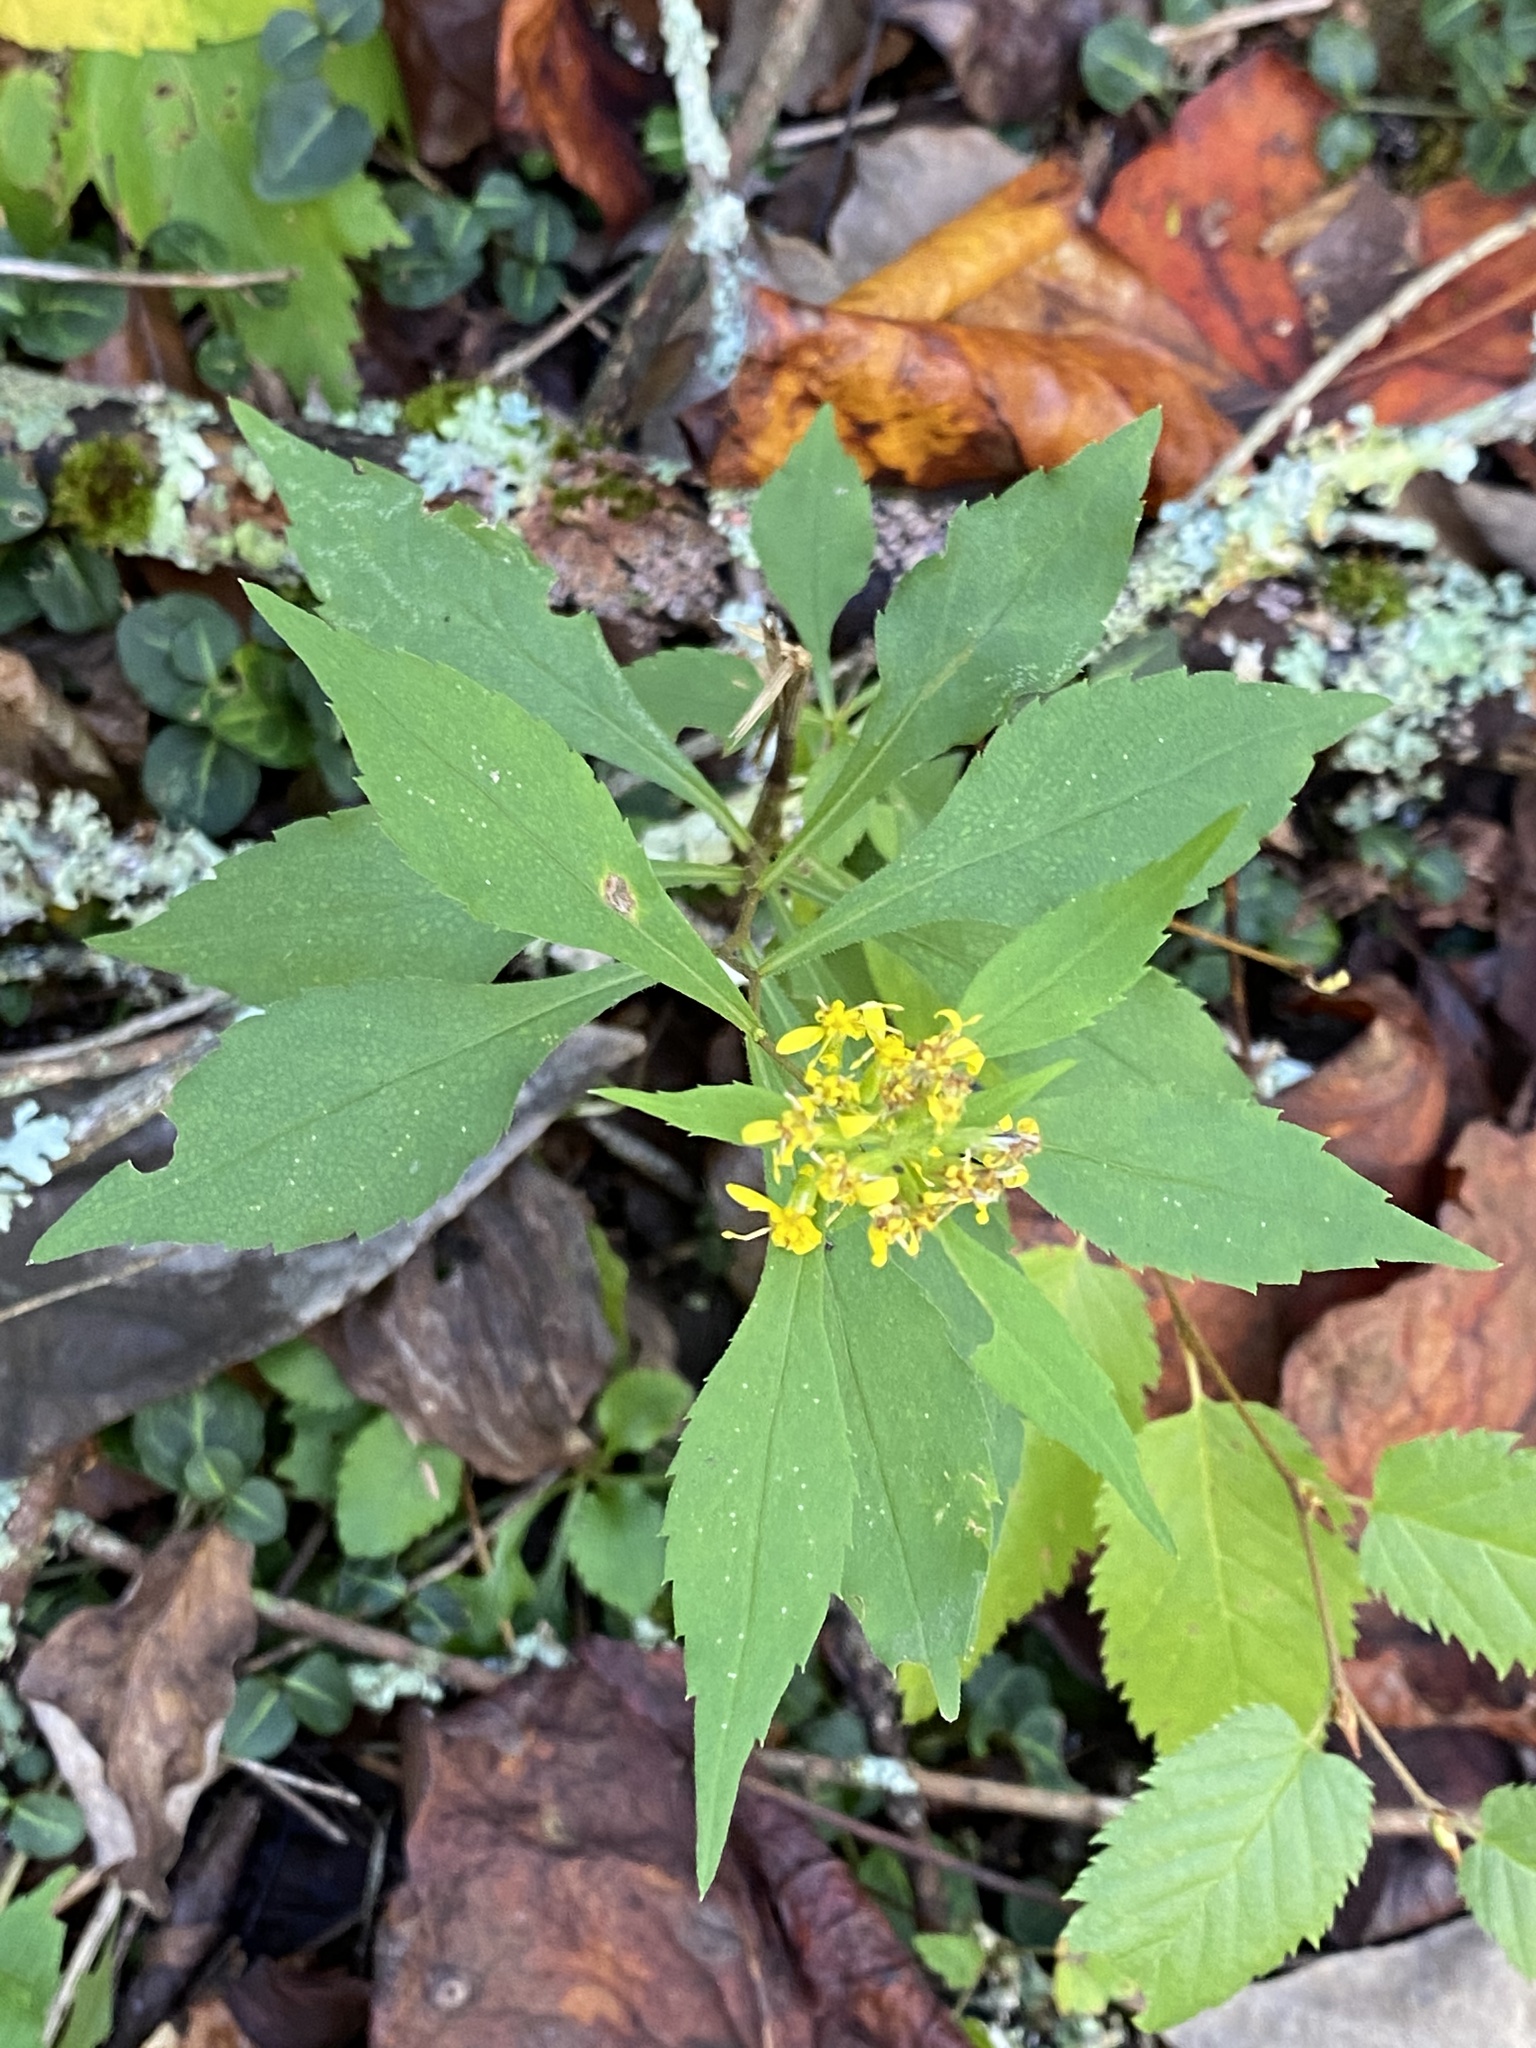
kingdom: Plantae
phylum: Tracheophyta
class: Magnoliopsida
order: Asterales
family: Asteraceae
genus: Solidago
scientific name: Solidago flexicaulis
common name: Zig-zag goldenrod
